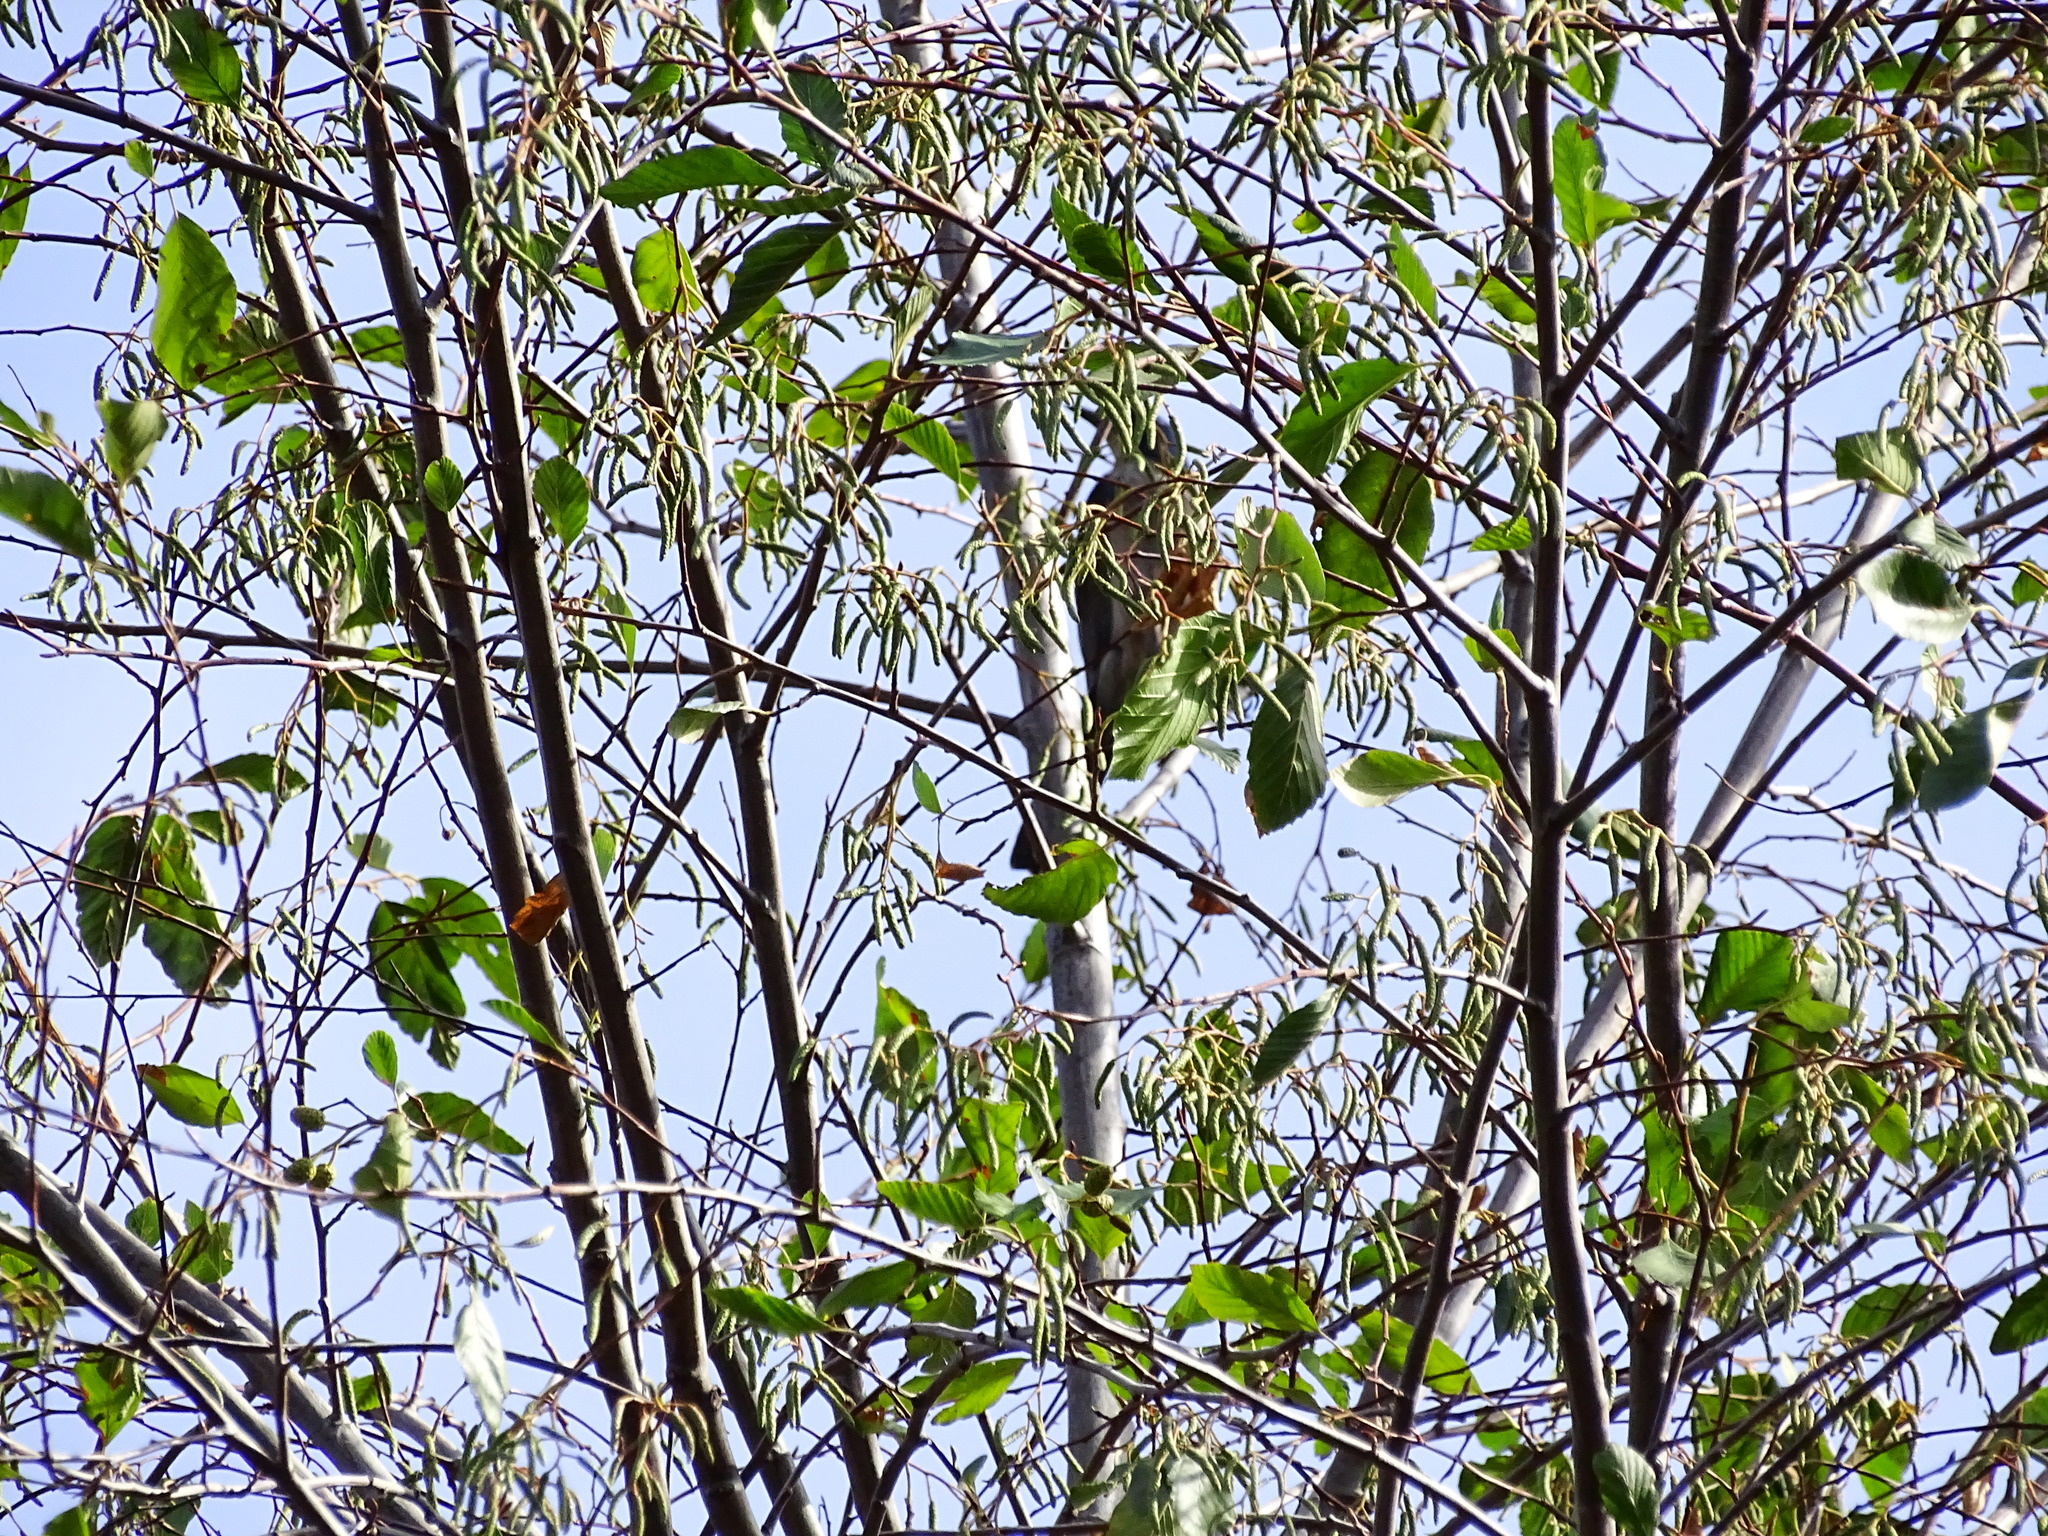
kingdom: Plantae
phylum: Tracheophyta
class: Magnoliopsida
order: Fagales
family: Betulaceae
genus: Alnus
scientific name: Alnus rhombifolia
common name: California alder
